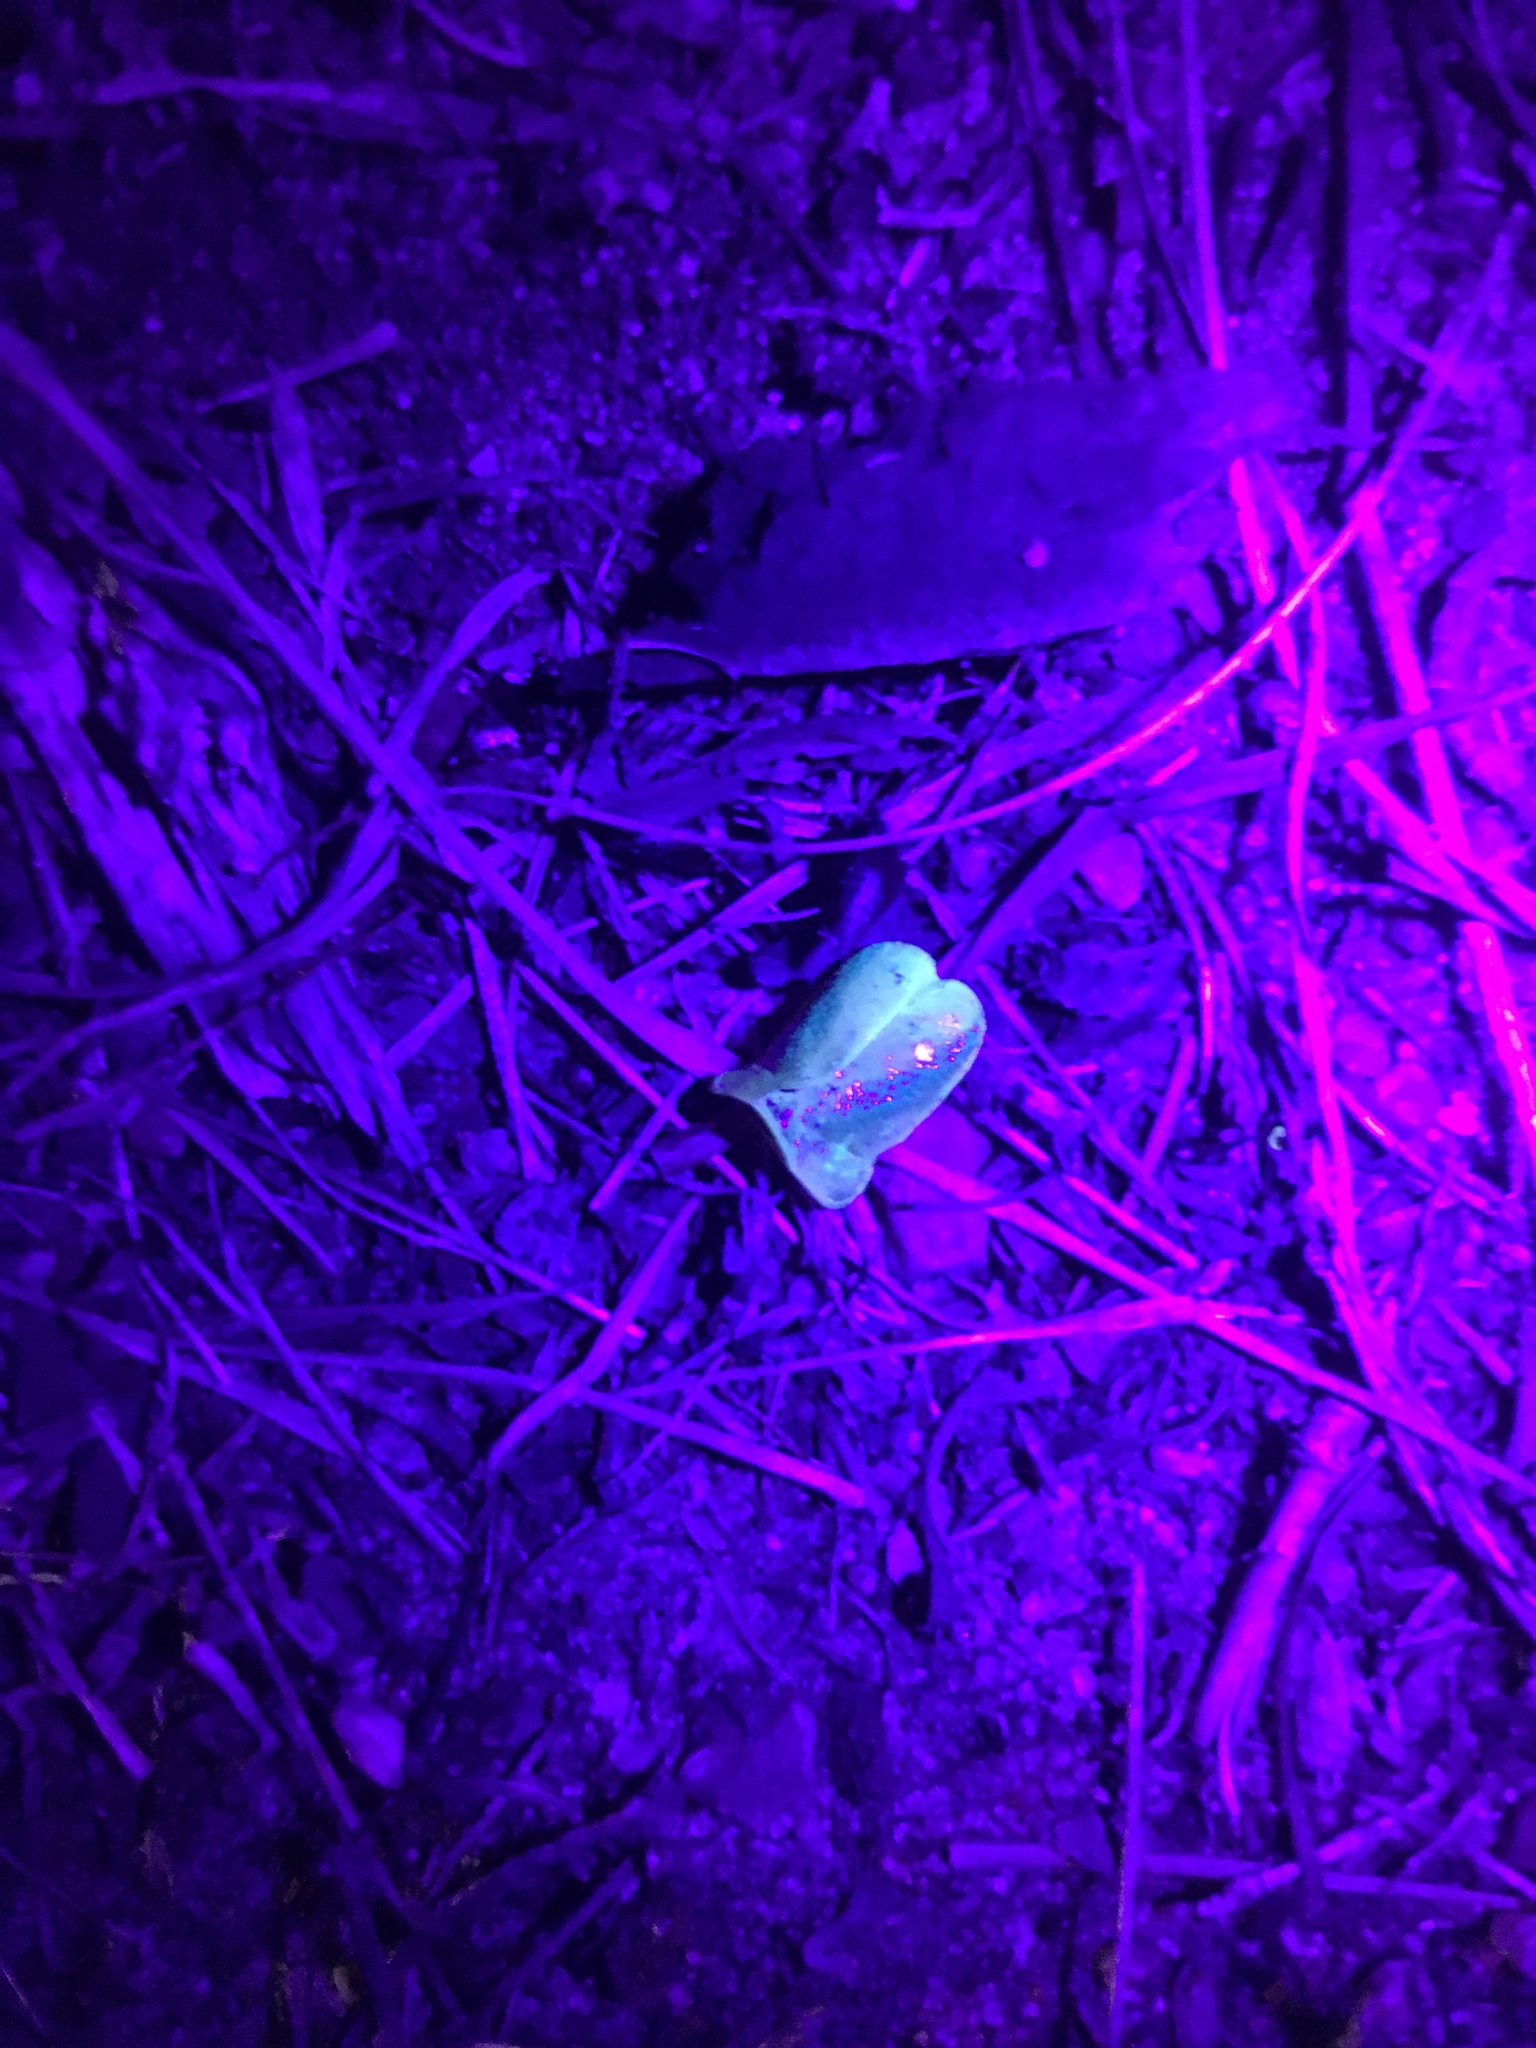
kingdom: Animalia
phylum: Arthropoda
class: Arachnida
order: Scorpiones
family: Scorpionidae
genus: Opistophthalmus
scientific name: Opistophthalmus capensis
